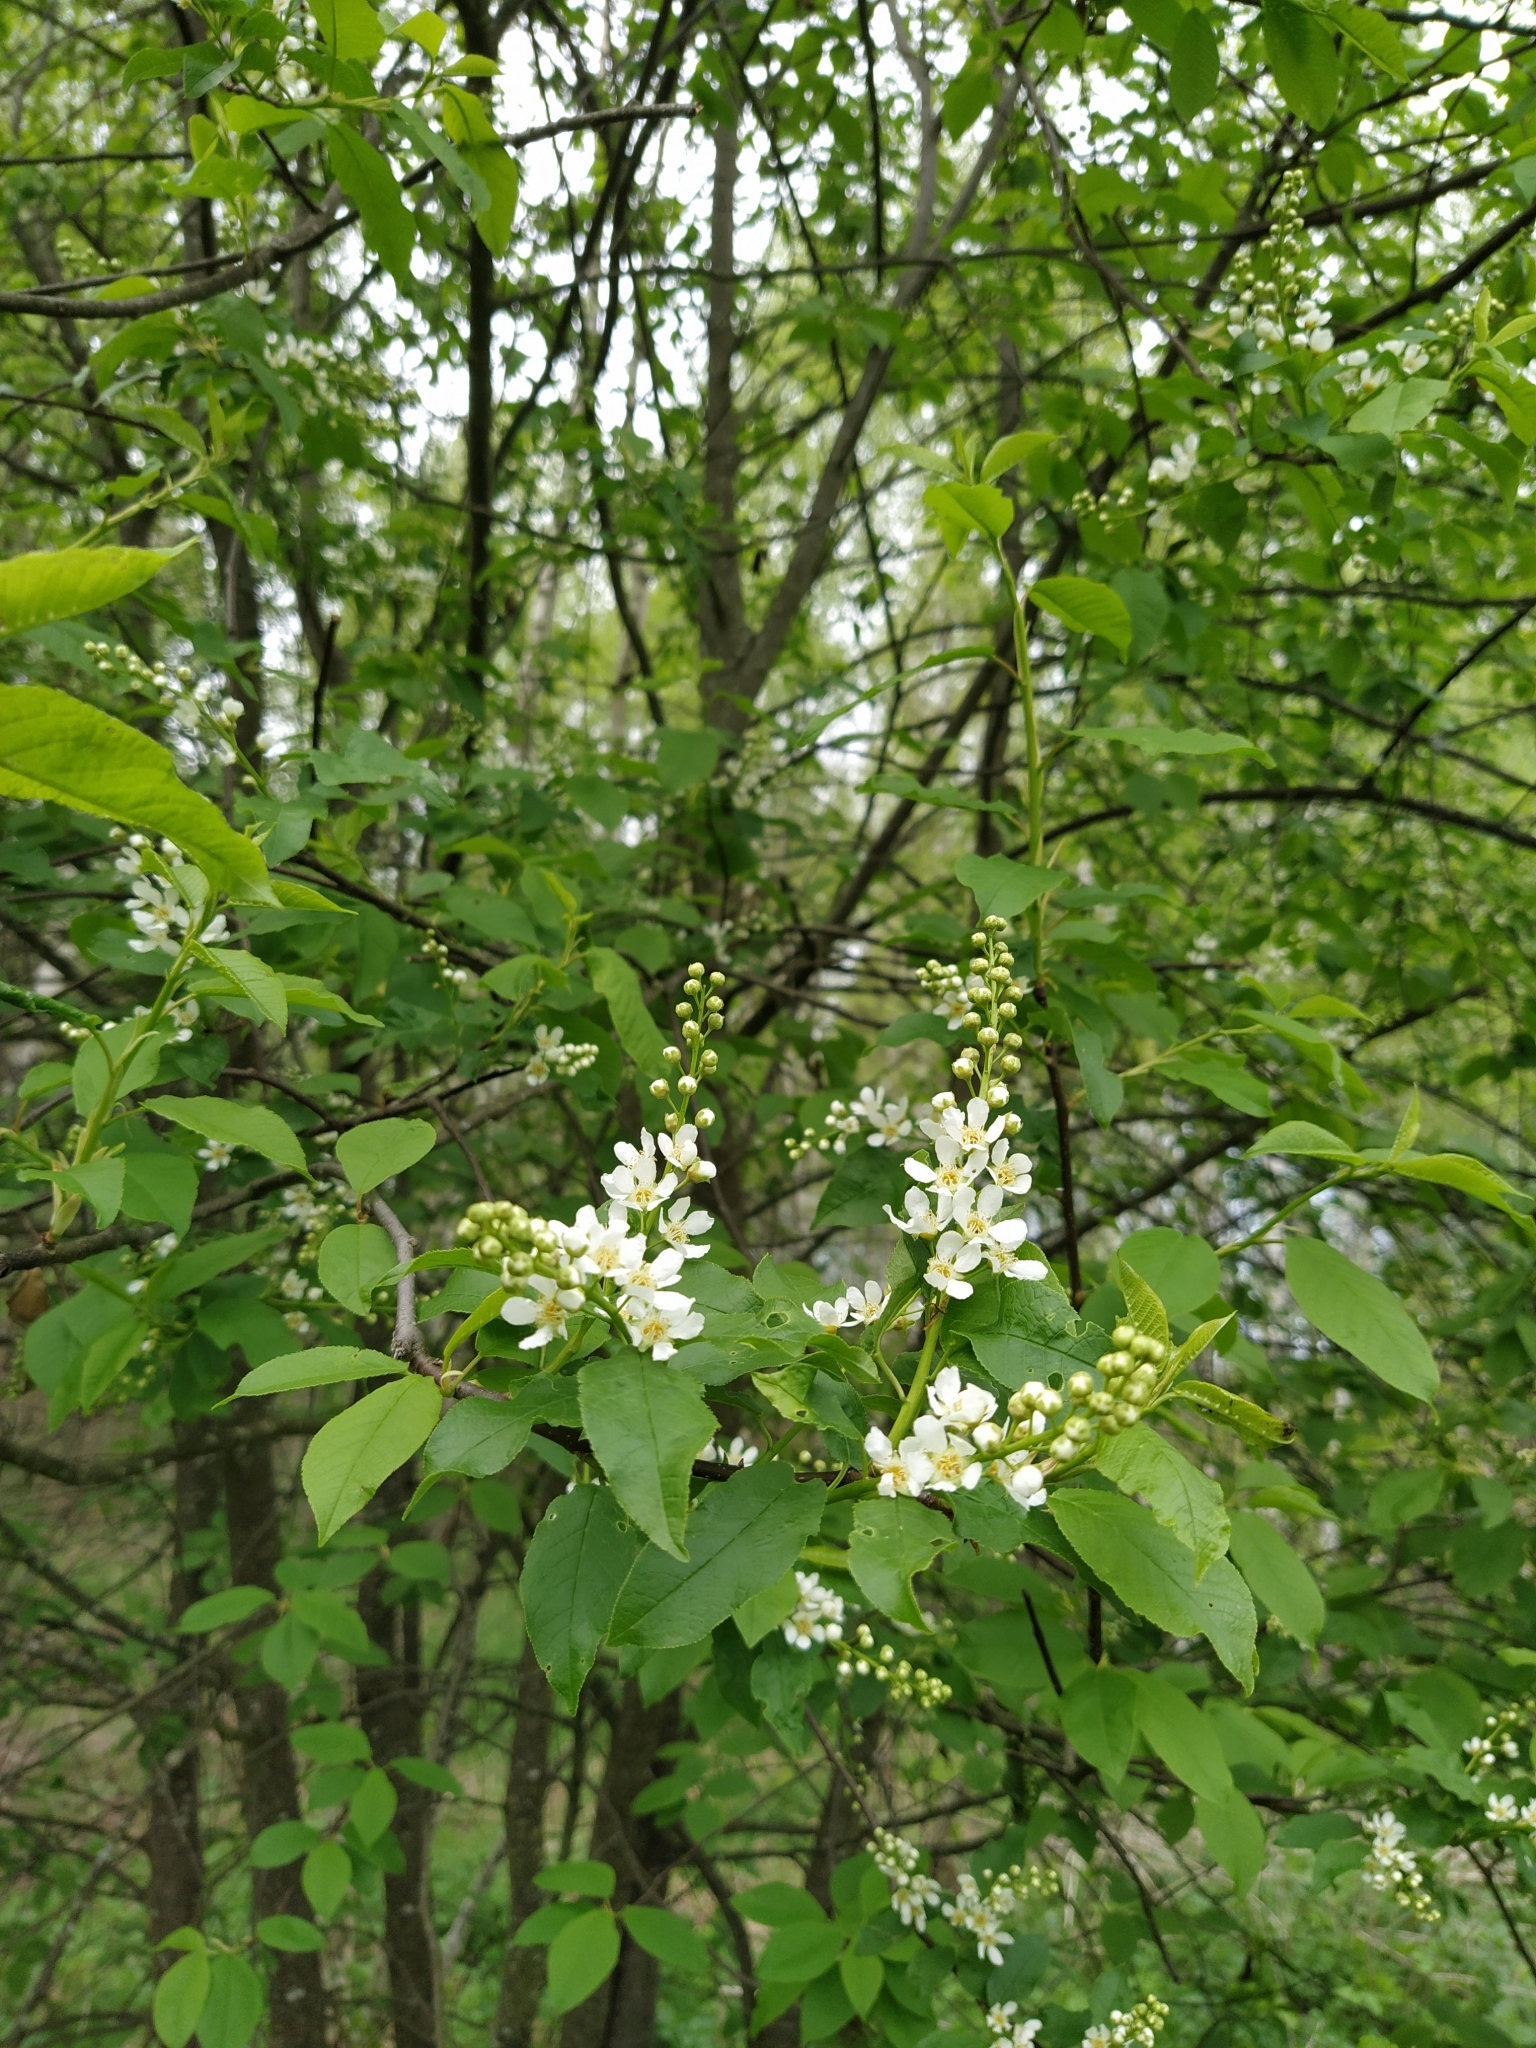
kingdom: Plantae
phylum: Tracheophyta
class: Magnoliopsida
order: Rosales
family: Rosaceae
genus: Prunus
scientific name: Prunus padus
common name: Bird cherry
